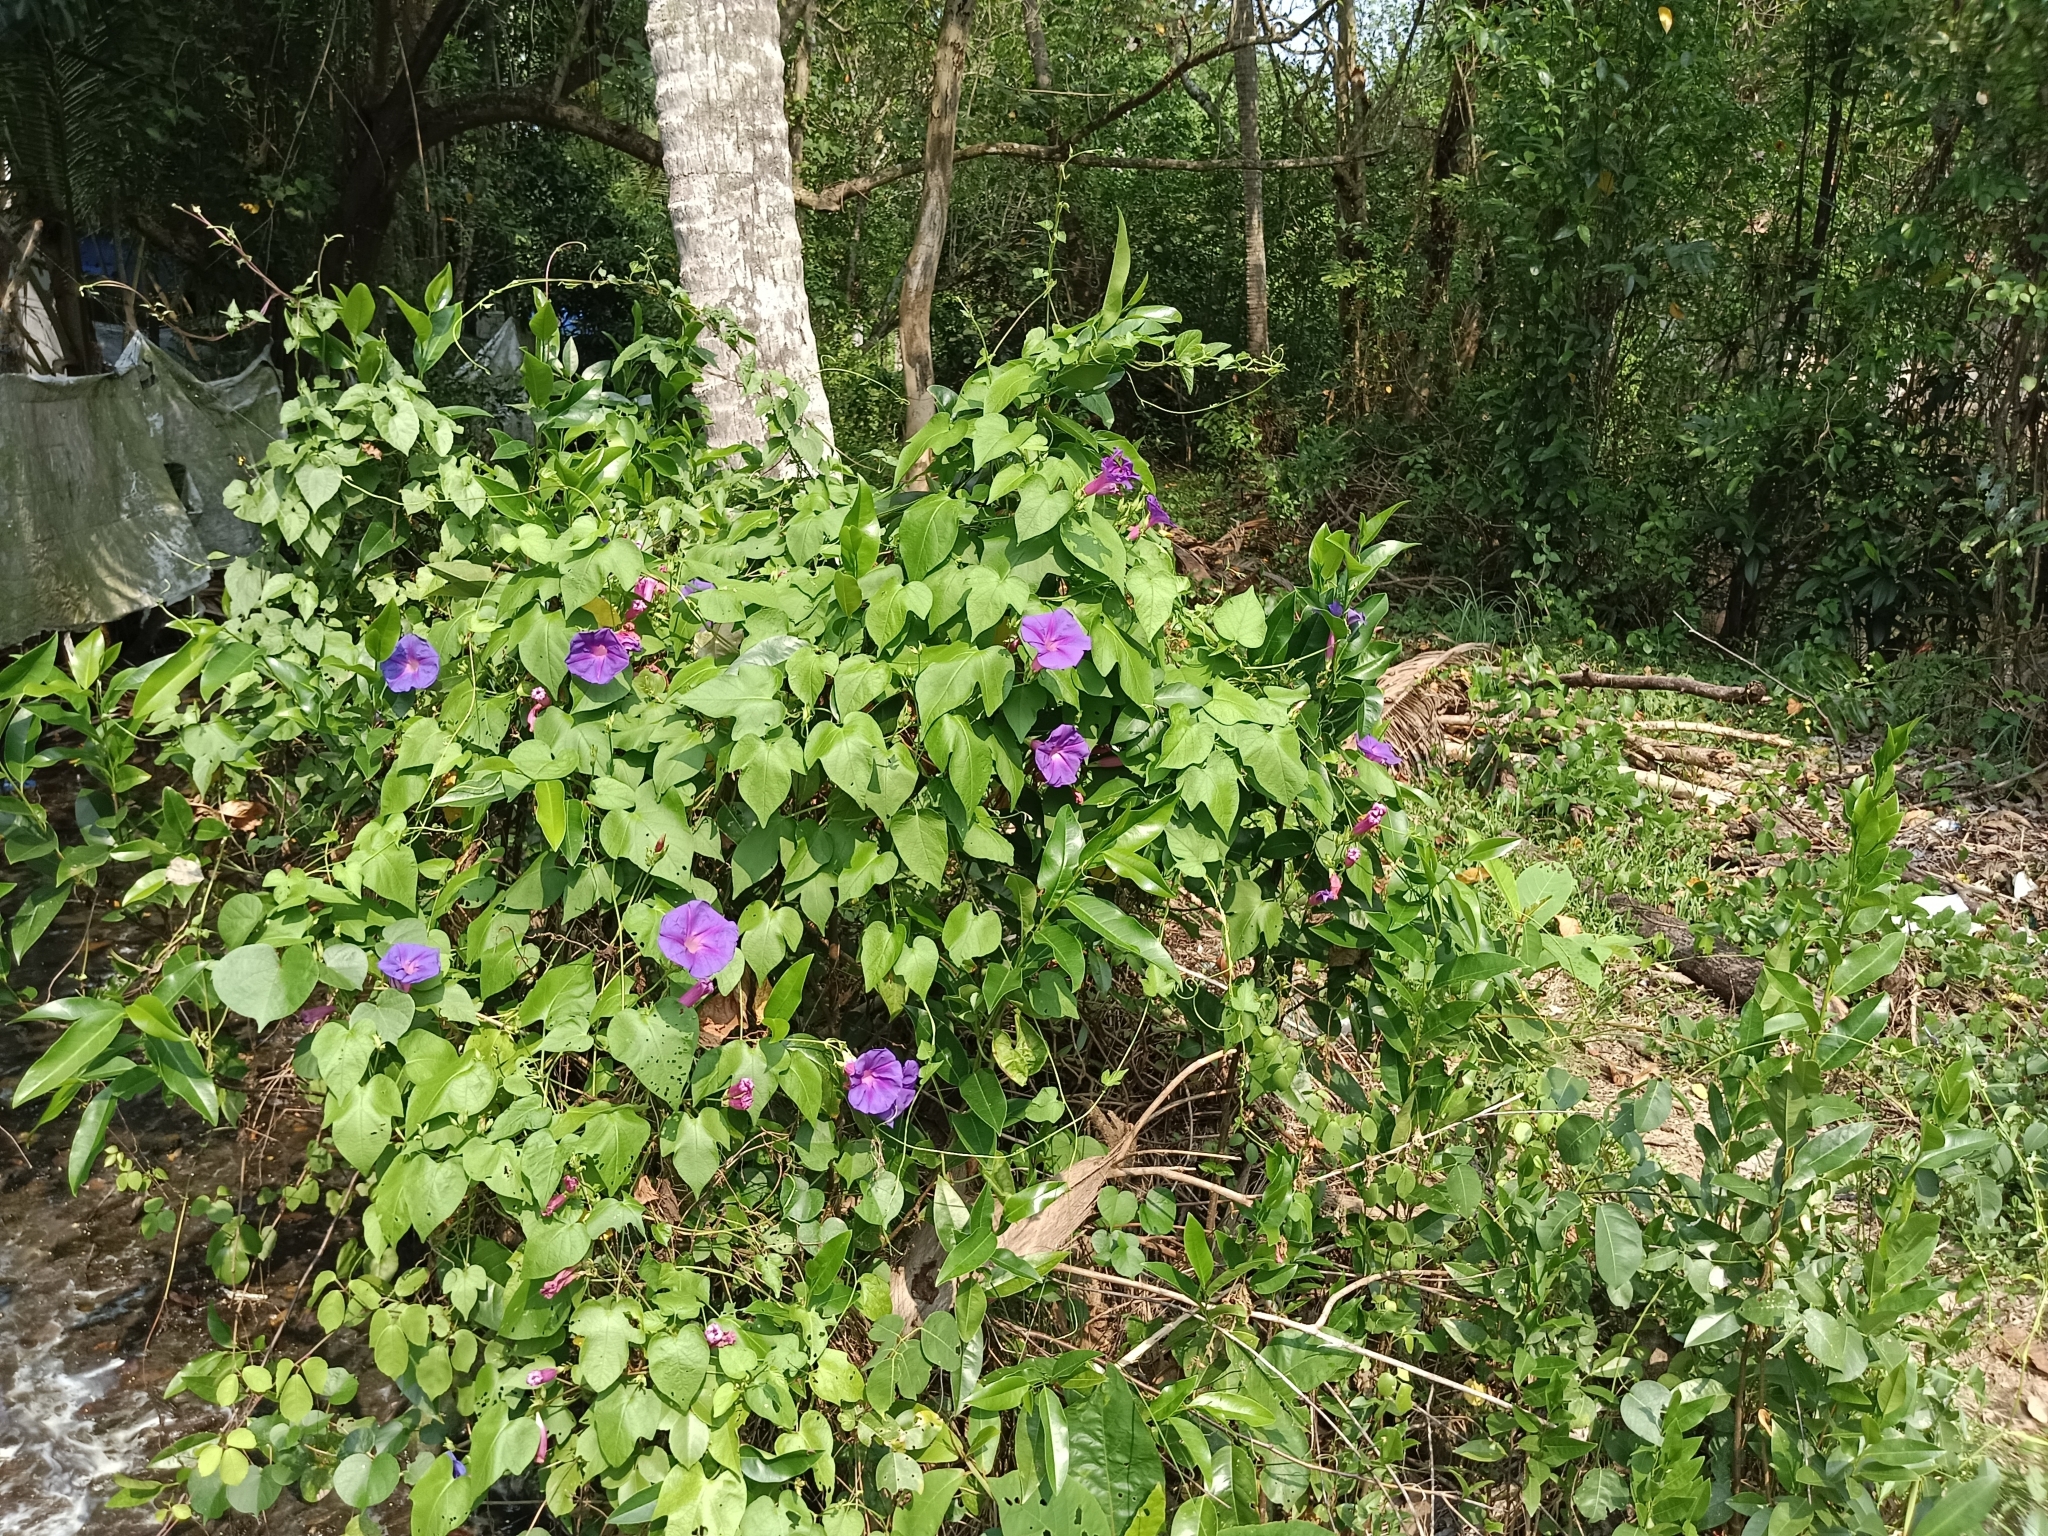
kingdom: Plantae
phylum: Tracheophyta
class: Magnoliopsida
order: Solanales
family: Convolvulaceae
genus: Ipomoea
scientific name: Ipomoea indica
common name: Blue dawnflower
